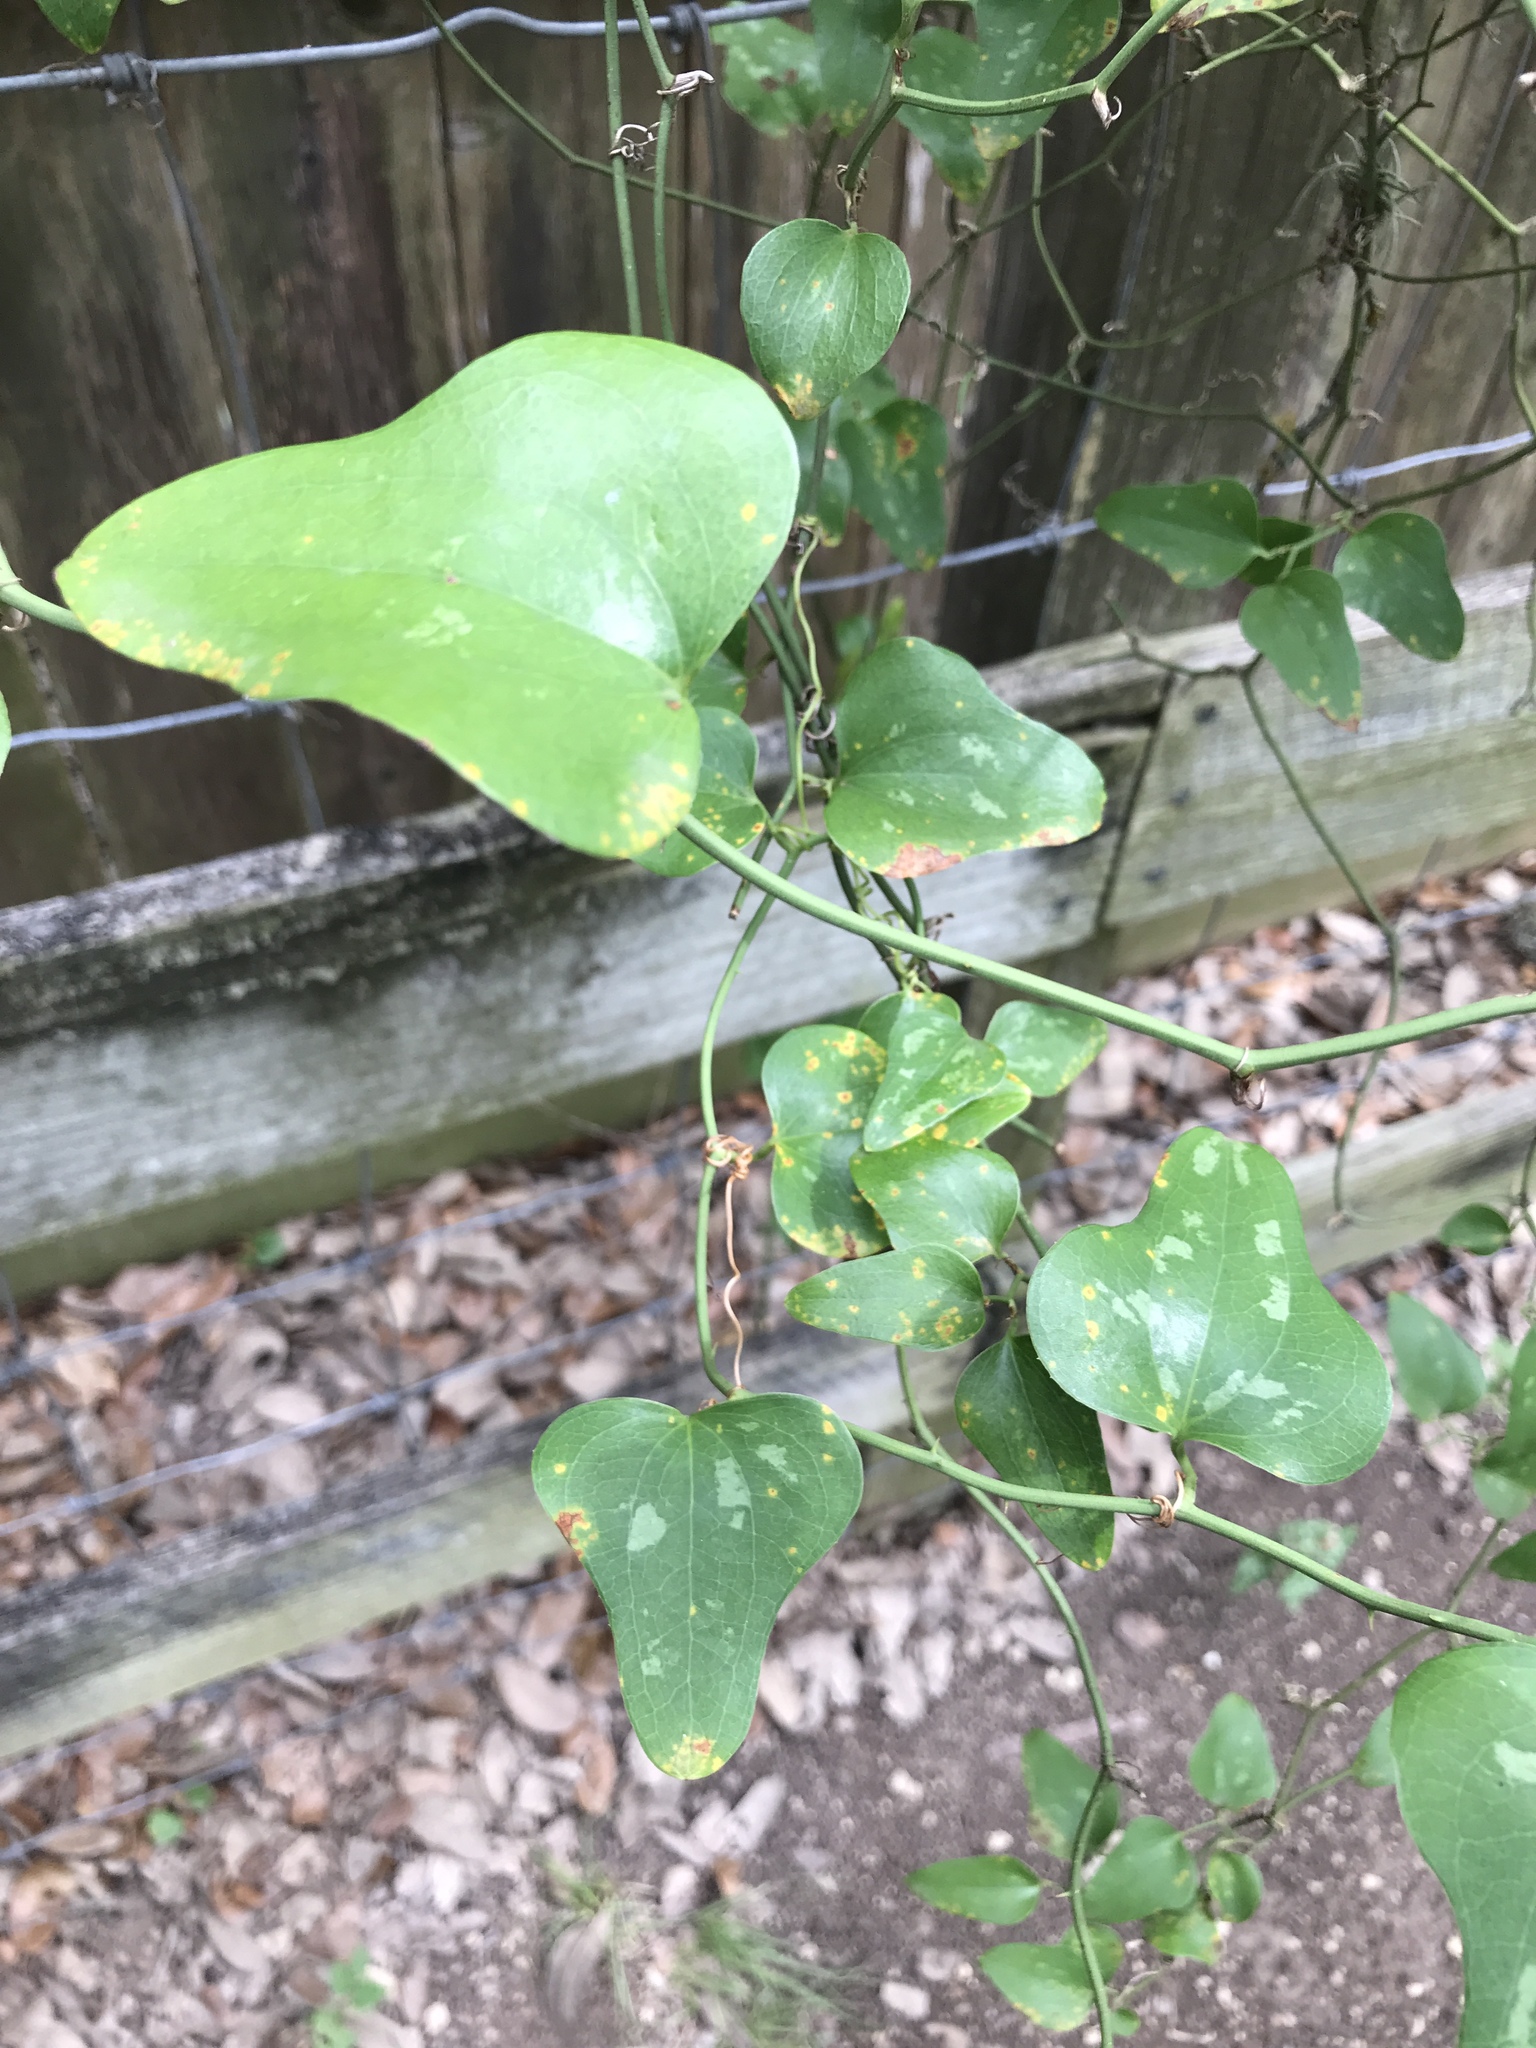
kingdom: Plantae
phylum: Tracheophyta
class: Liliopsida
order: Liliales
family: Smilacaceae
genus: Smilax
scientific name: Smilax bona-nox
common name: Catbrier
